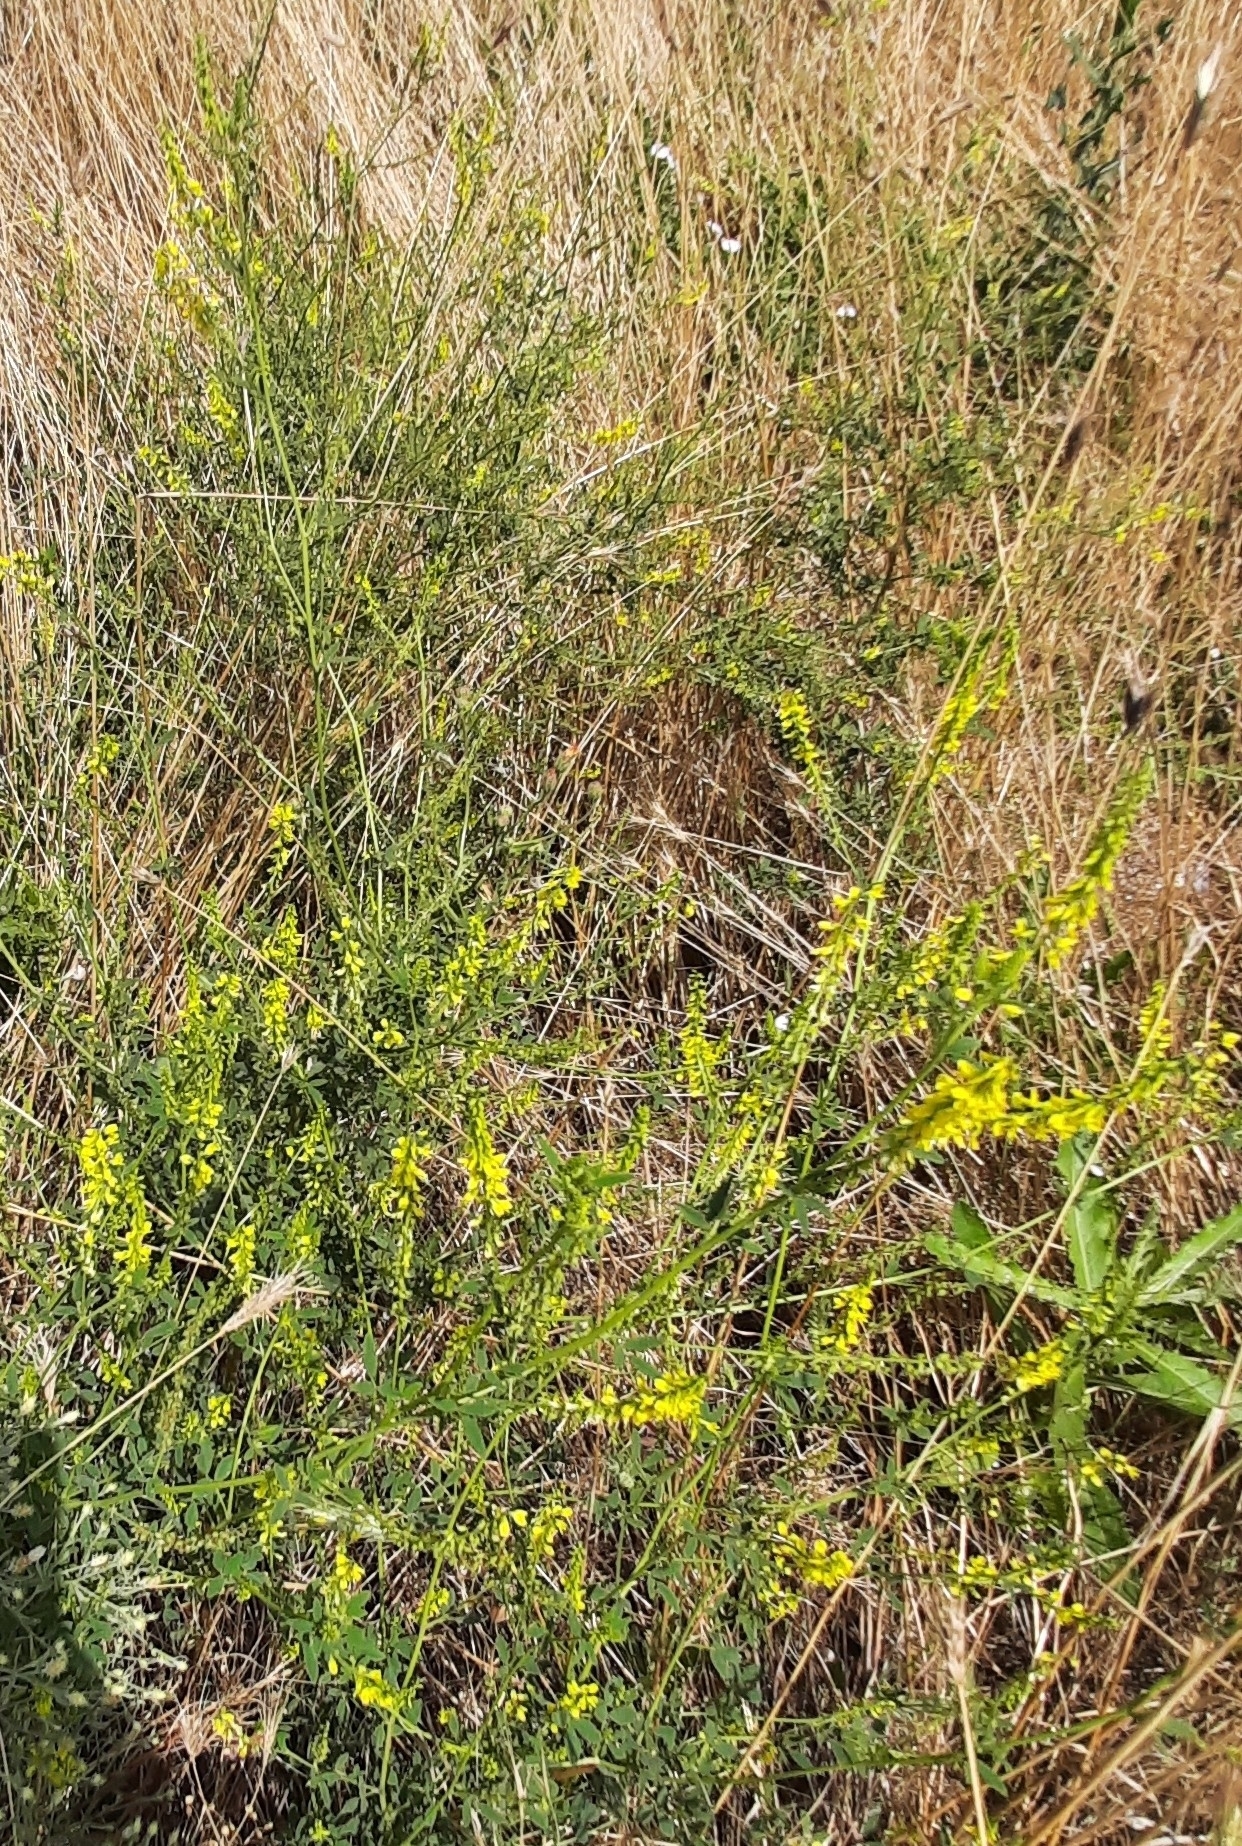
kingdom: Plantae
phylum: Tracheophyta
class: Magnoliopsida
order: Fabales
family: Fabaceae
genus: Melilotus
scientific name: Melilotus officinalis
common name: Sweetclover
